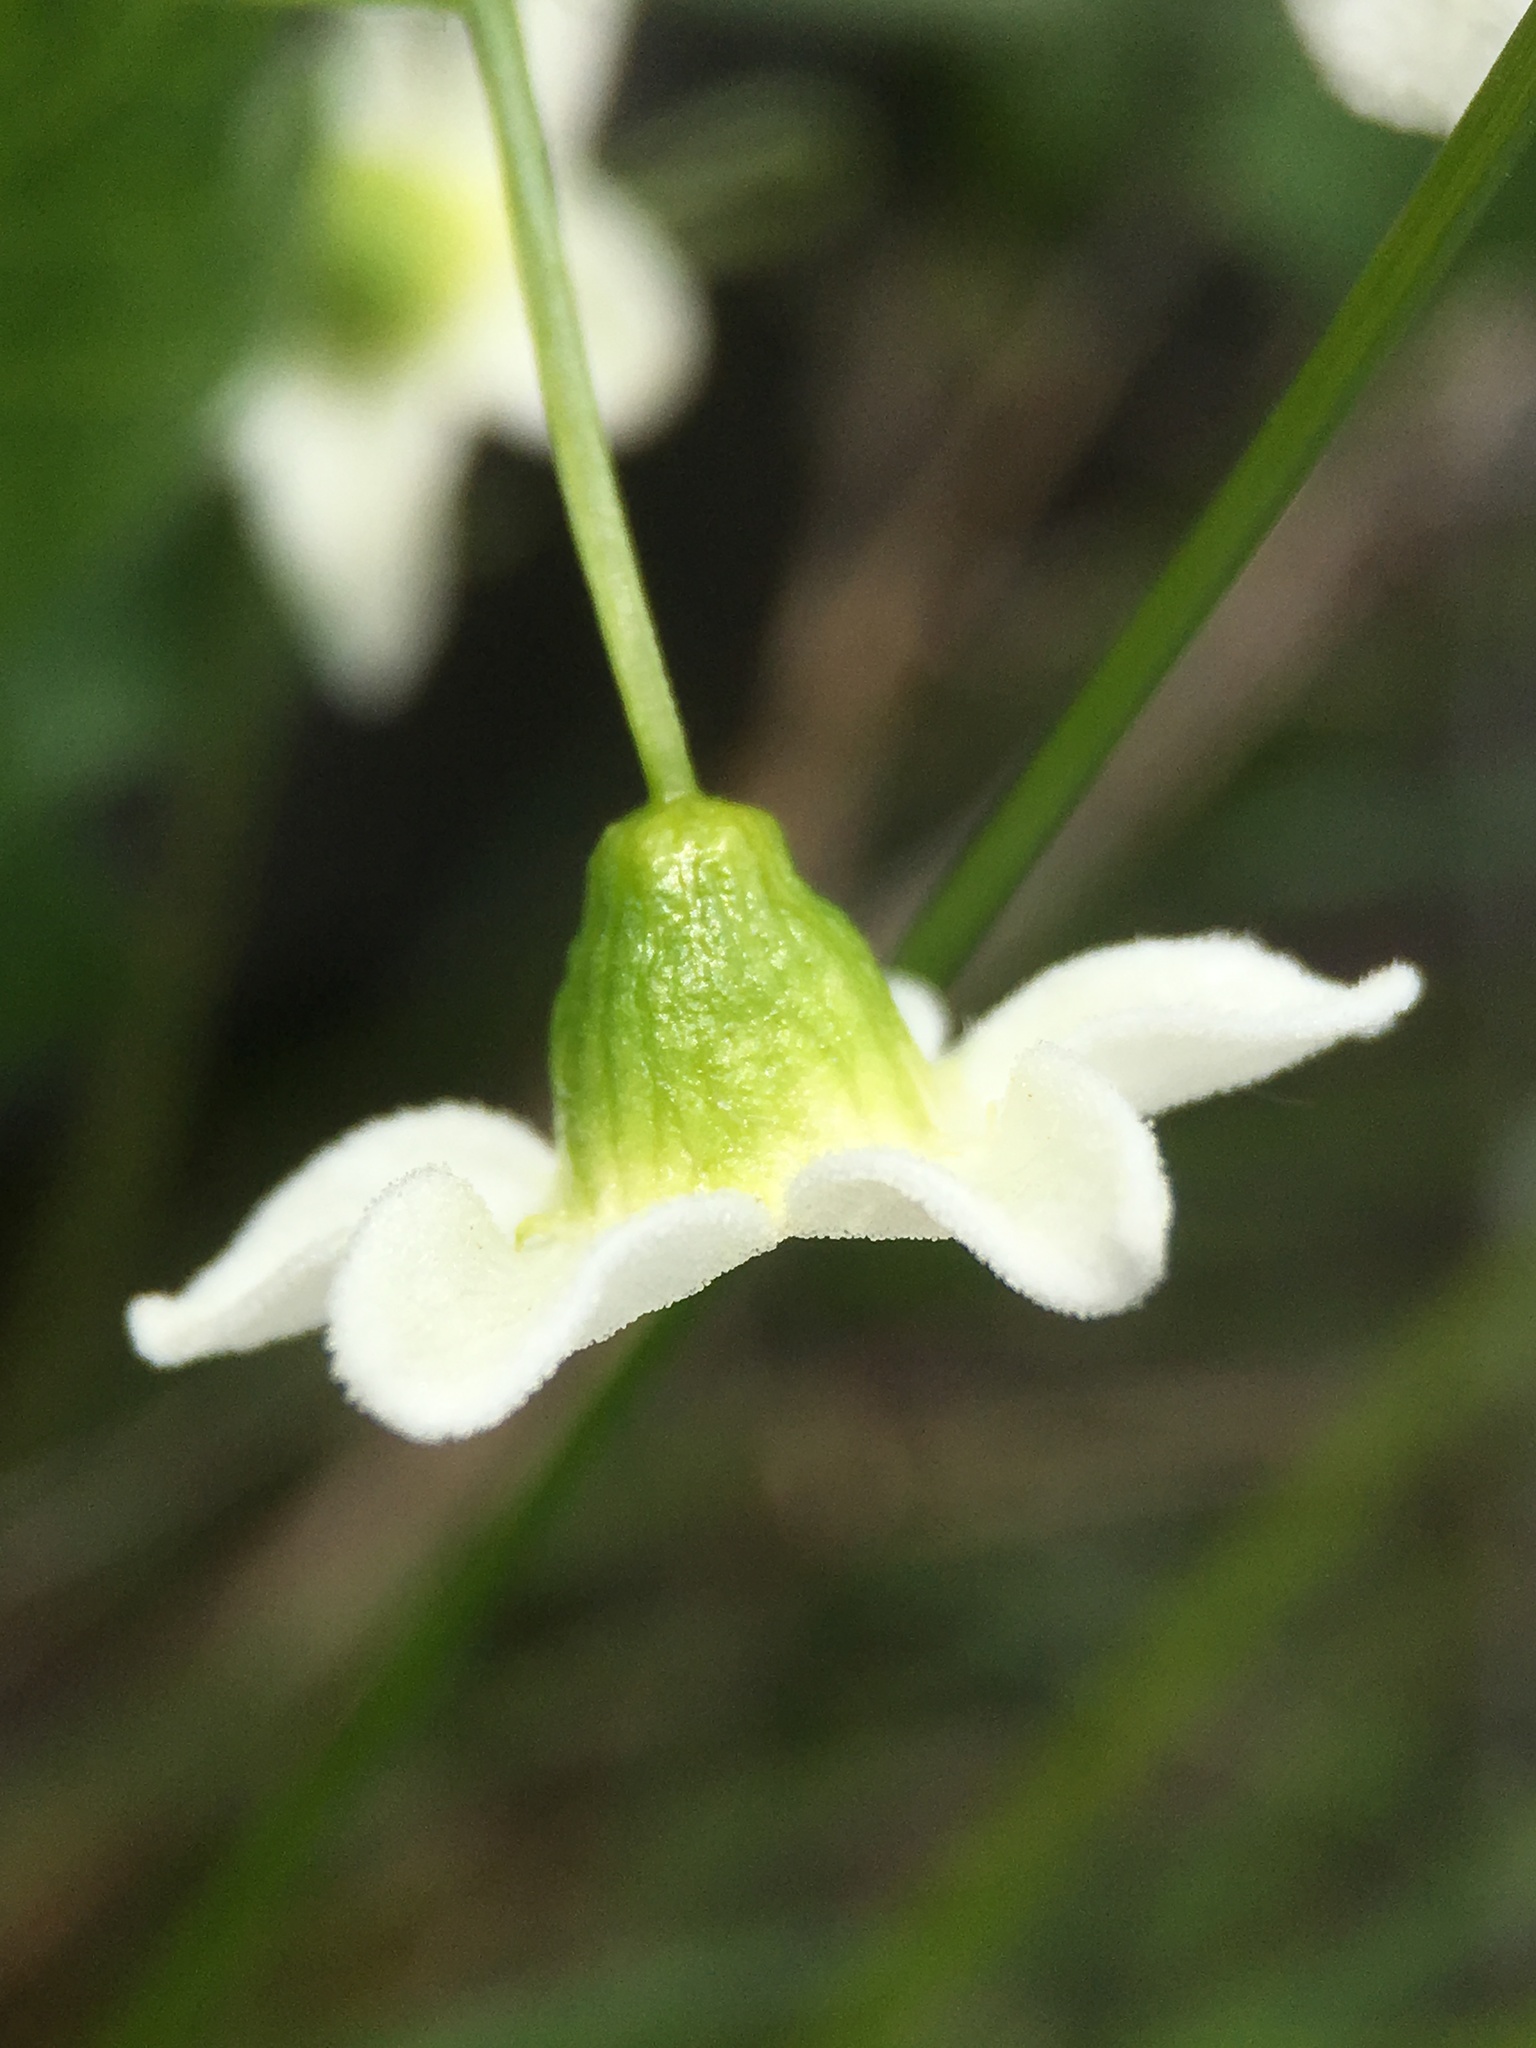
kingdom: Plantae
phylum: Tracheophyta
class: Magnoliopsida
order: Cucurbitales
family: Cucurbitaceae
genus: Marah
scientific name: Marah watsonii
